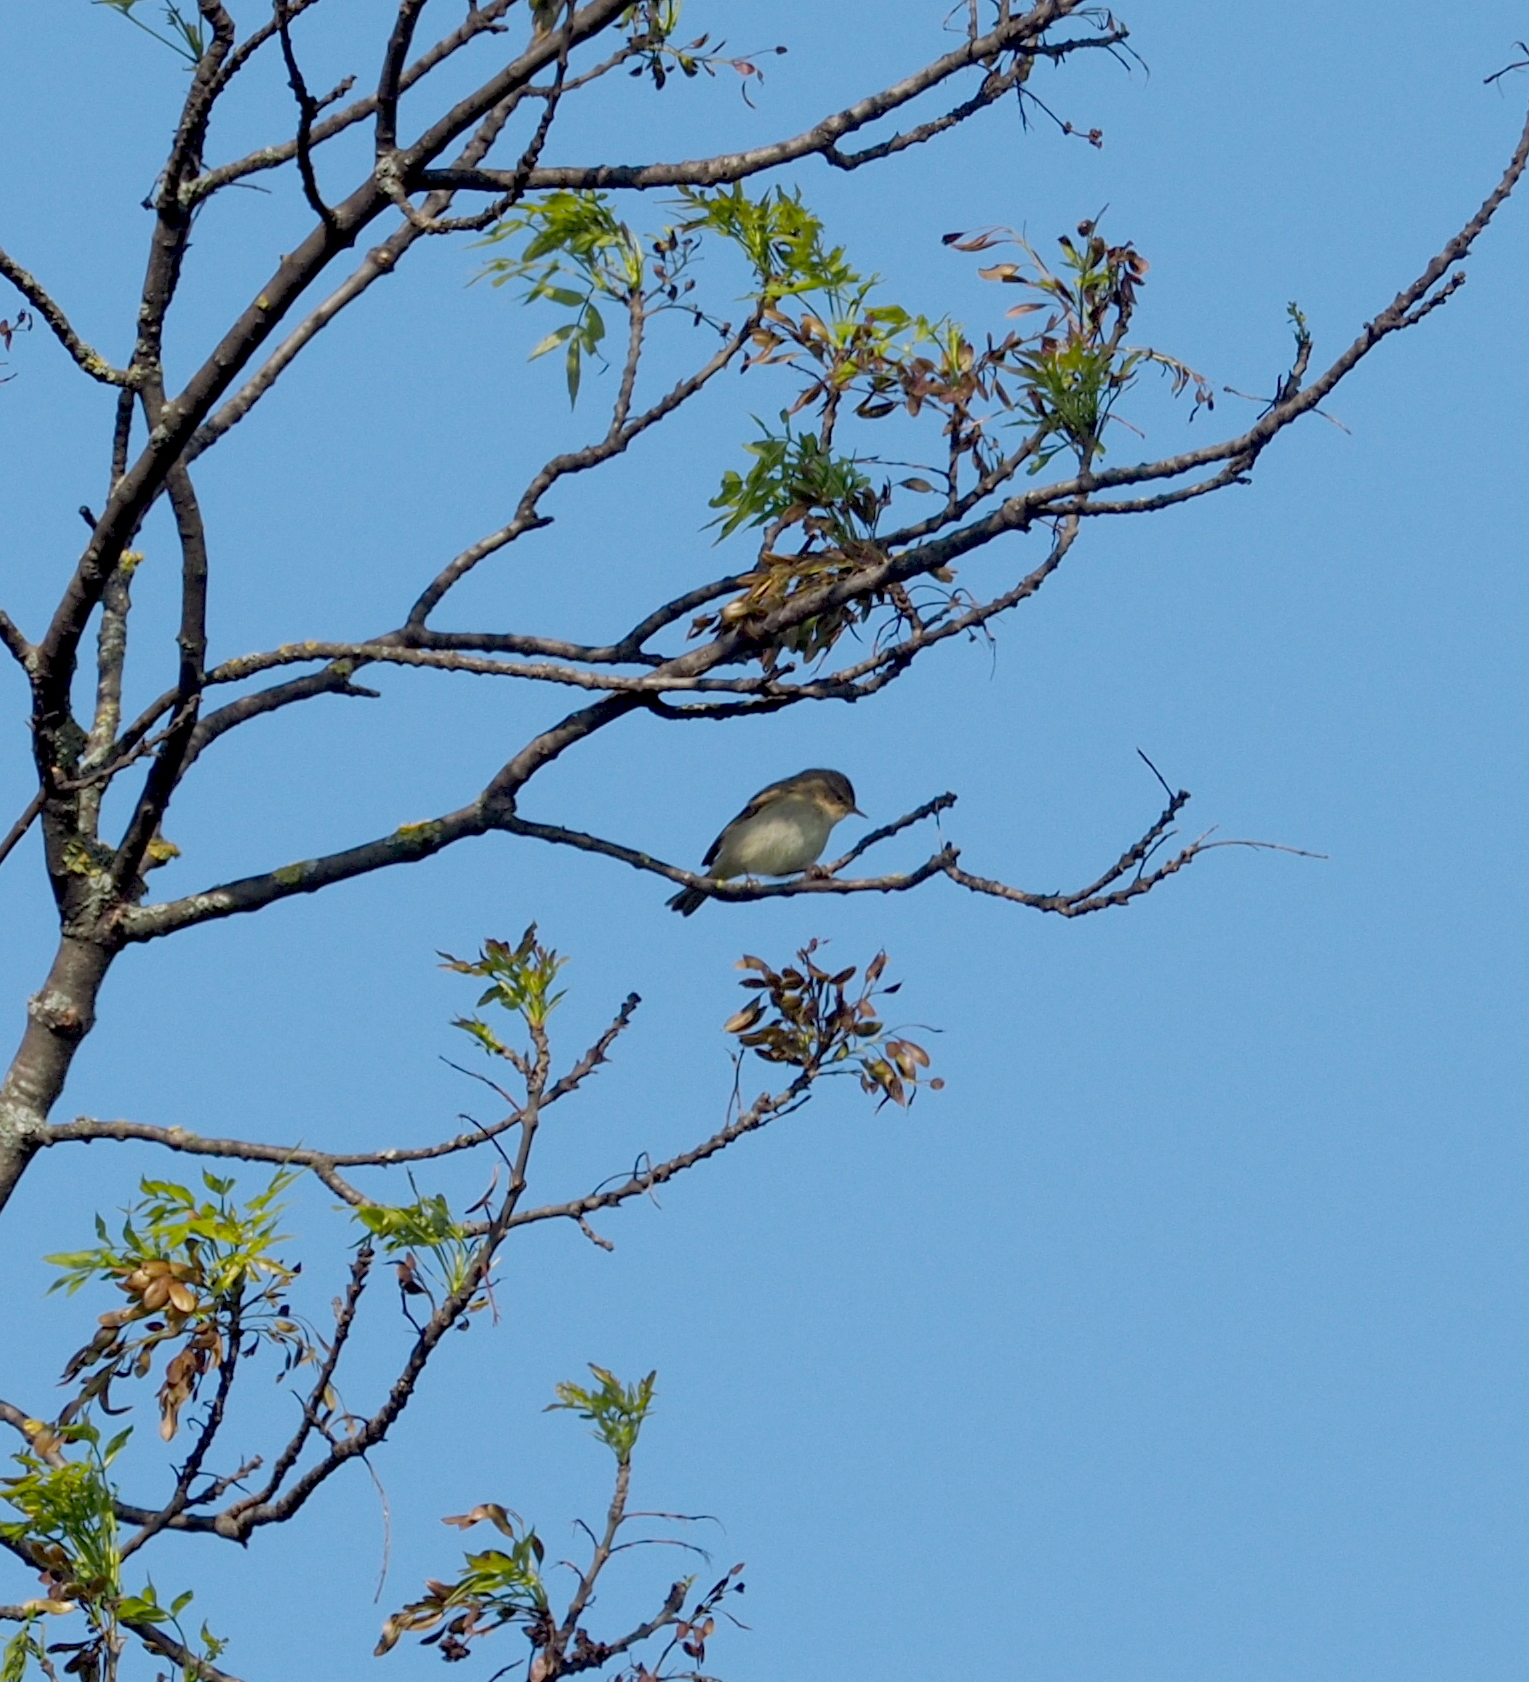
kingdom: Animalia
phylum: Chordata
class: Aves
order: Passeriformes
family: Phylloscopidae
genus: Phylloscopus
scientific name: Phylloscopus collybita
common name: Common chiffchaff
